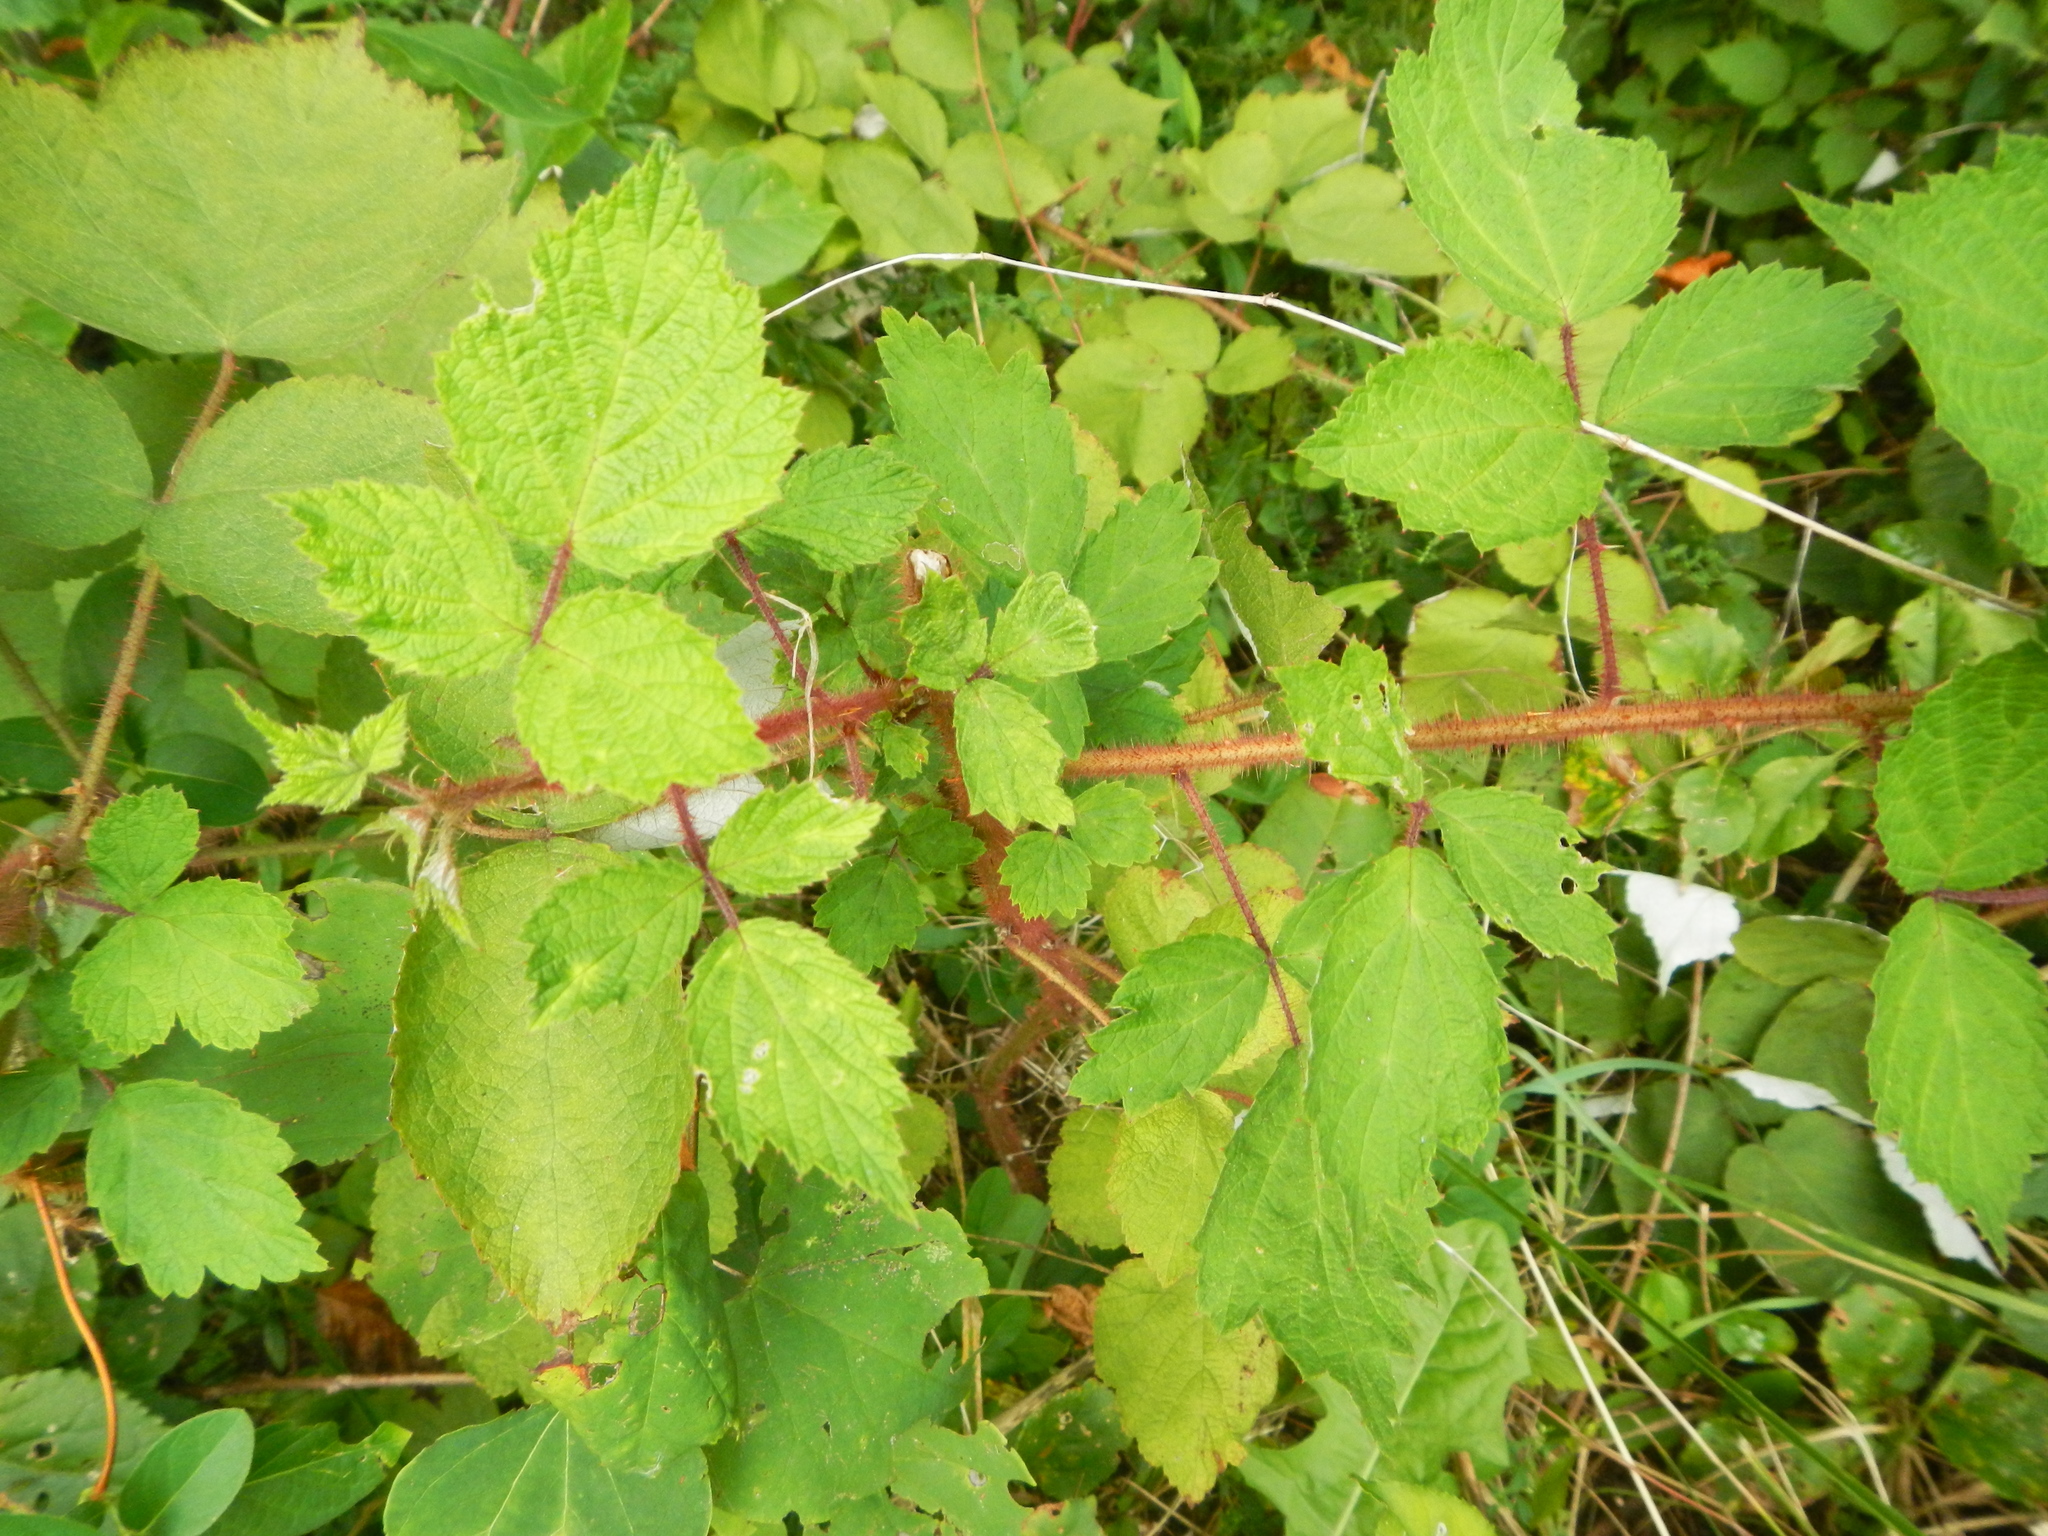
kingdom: Plantae
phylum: Tracheophyta
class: Magnoliopsida
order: Rosales
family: Rosaceae
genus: Rubus
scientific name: Rubus phoenicolasius
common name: Japanese wineberry
